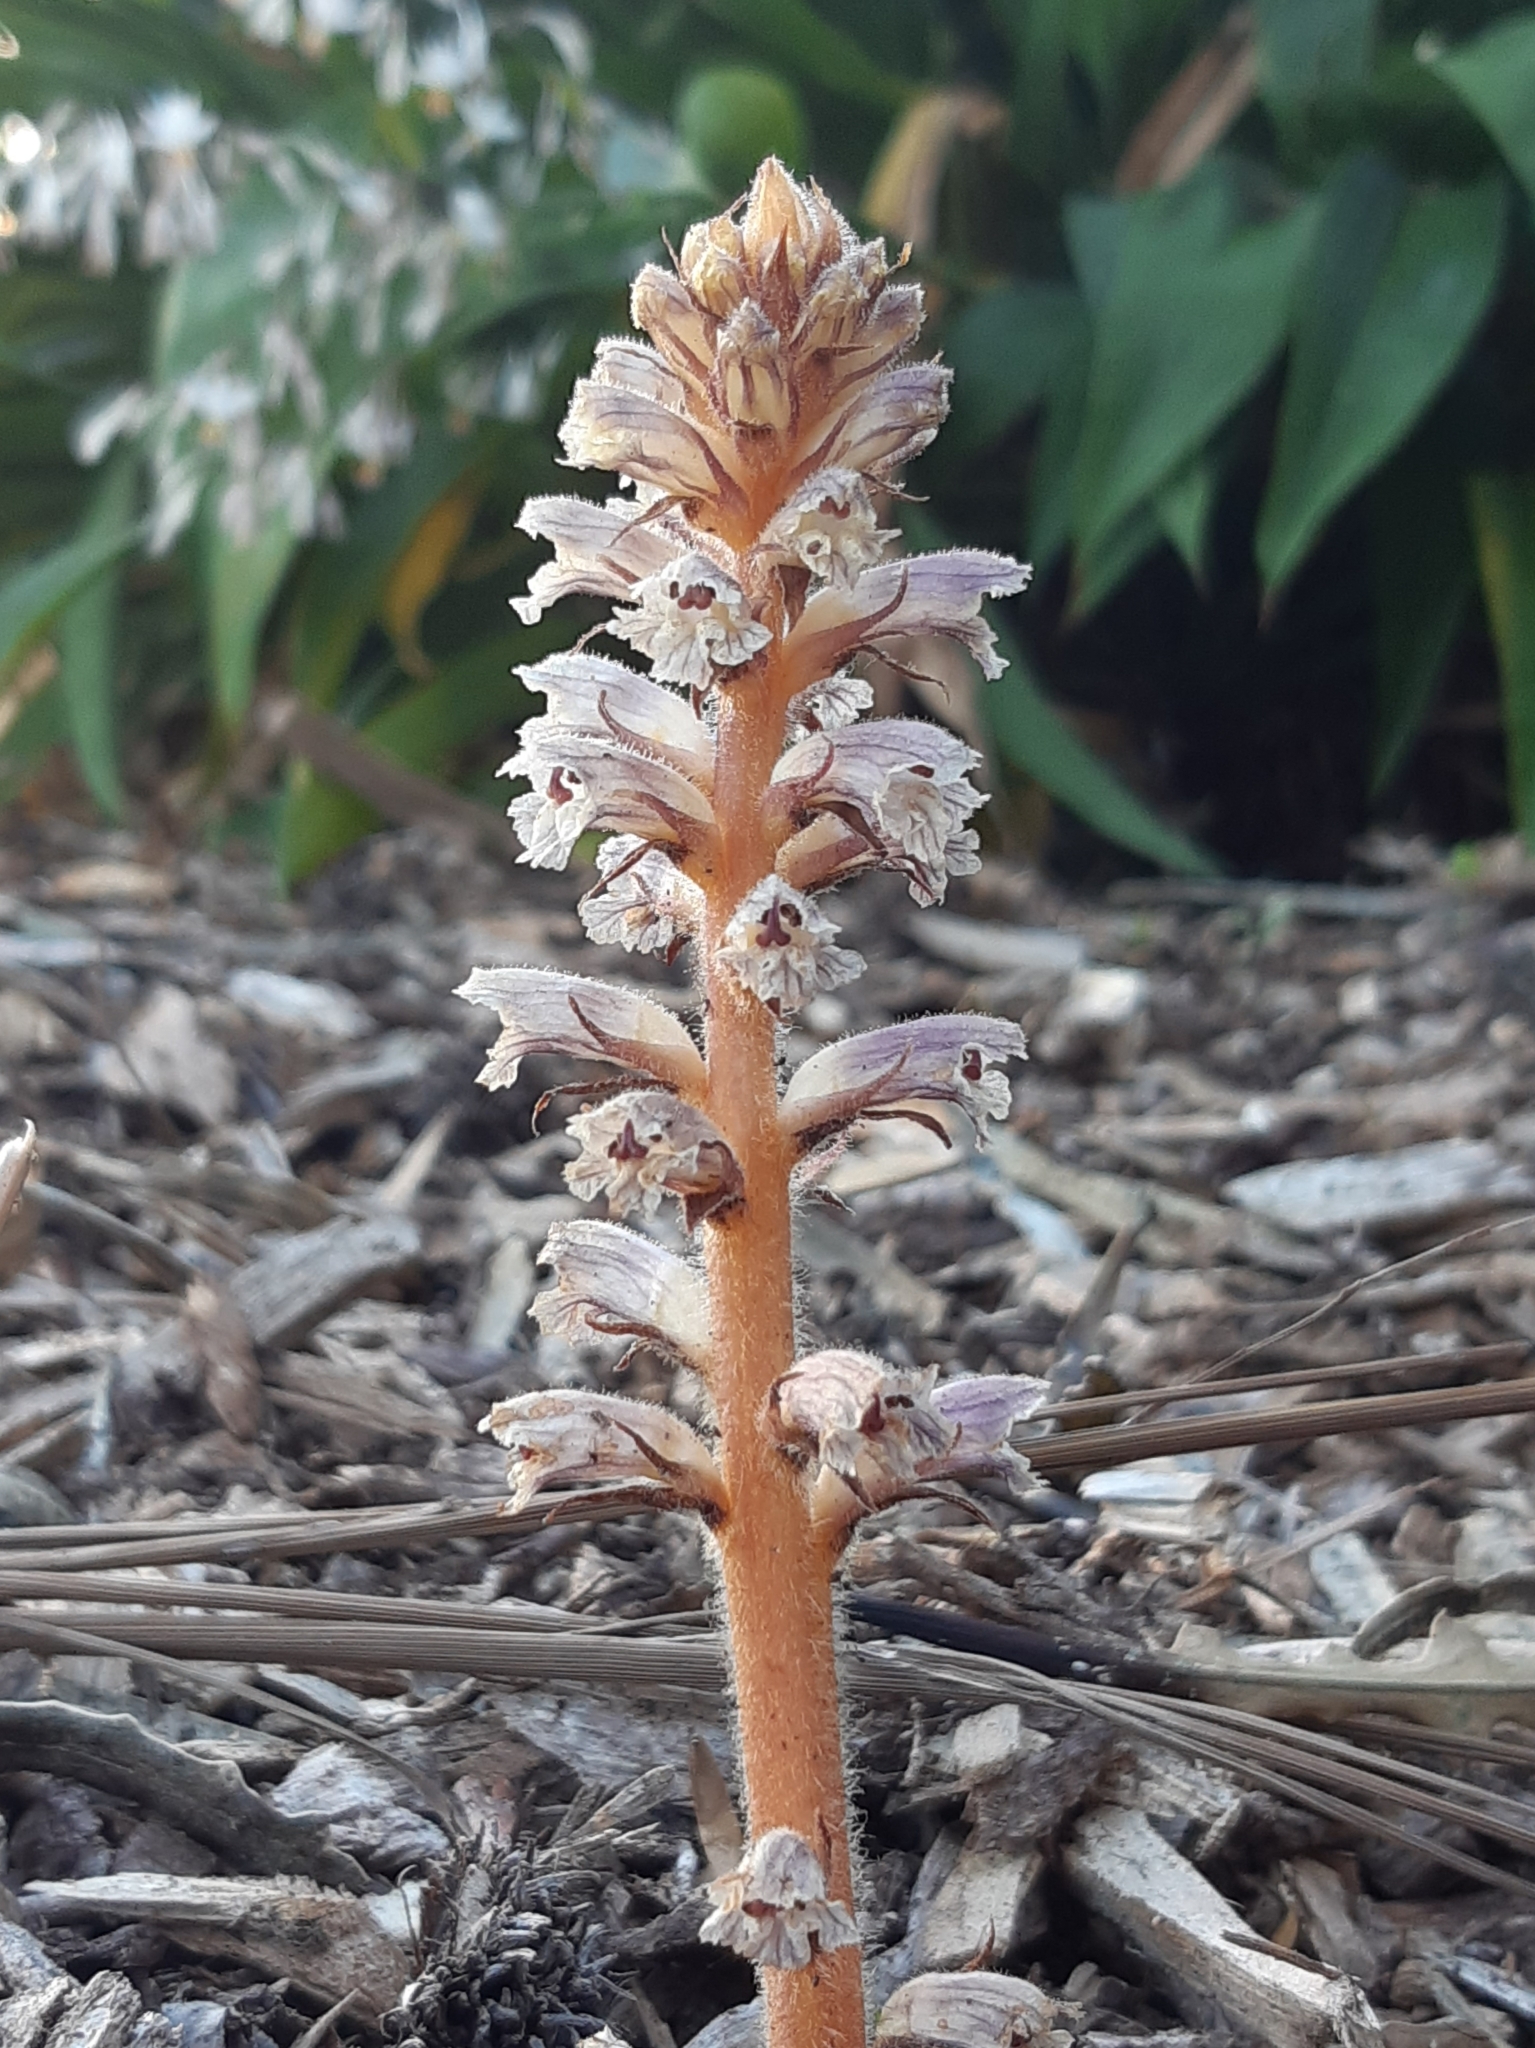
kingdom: Plantae
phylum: Tracheophyta
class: Magnoliopsida
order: Lamiales
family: Orobanchaceae
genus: Orobanche
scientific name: Orobanche minor
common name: Common broomrape
